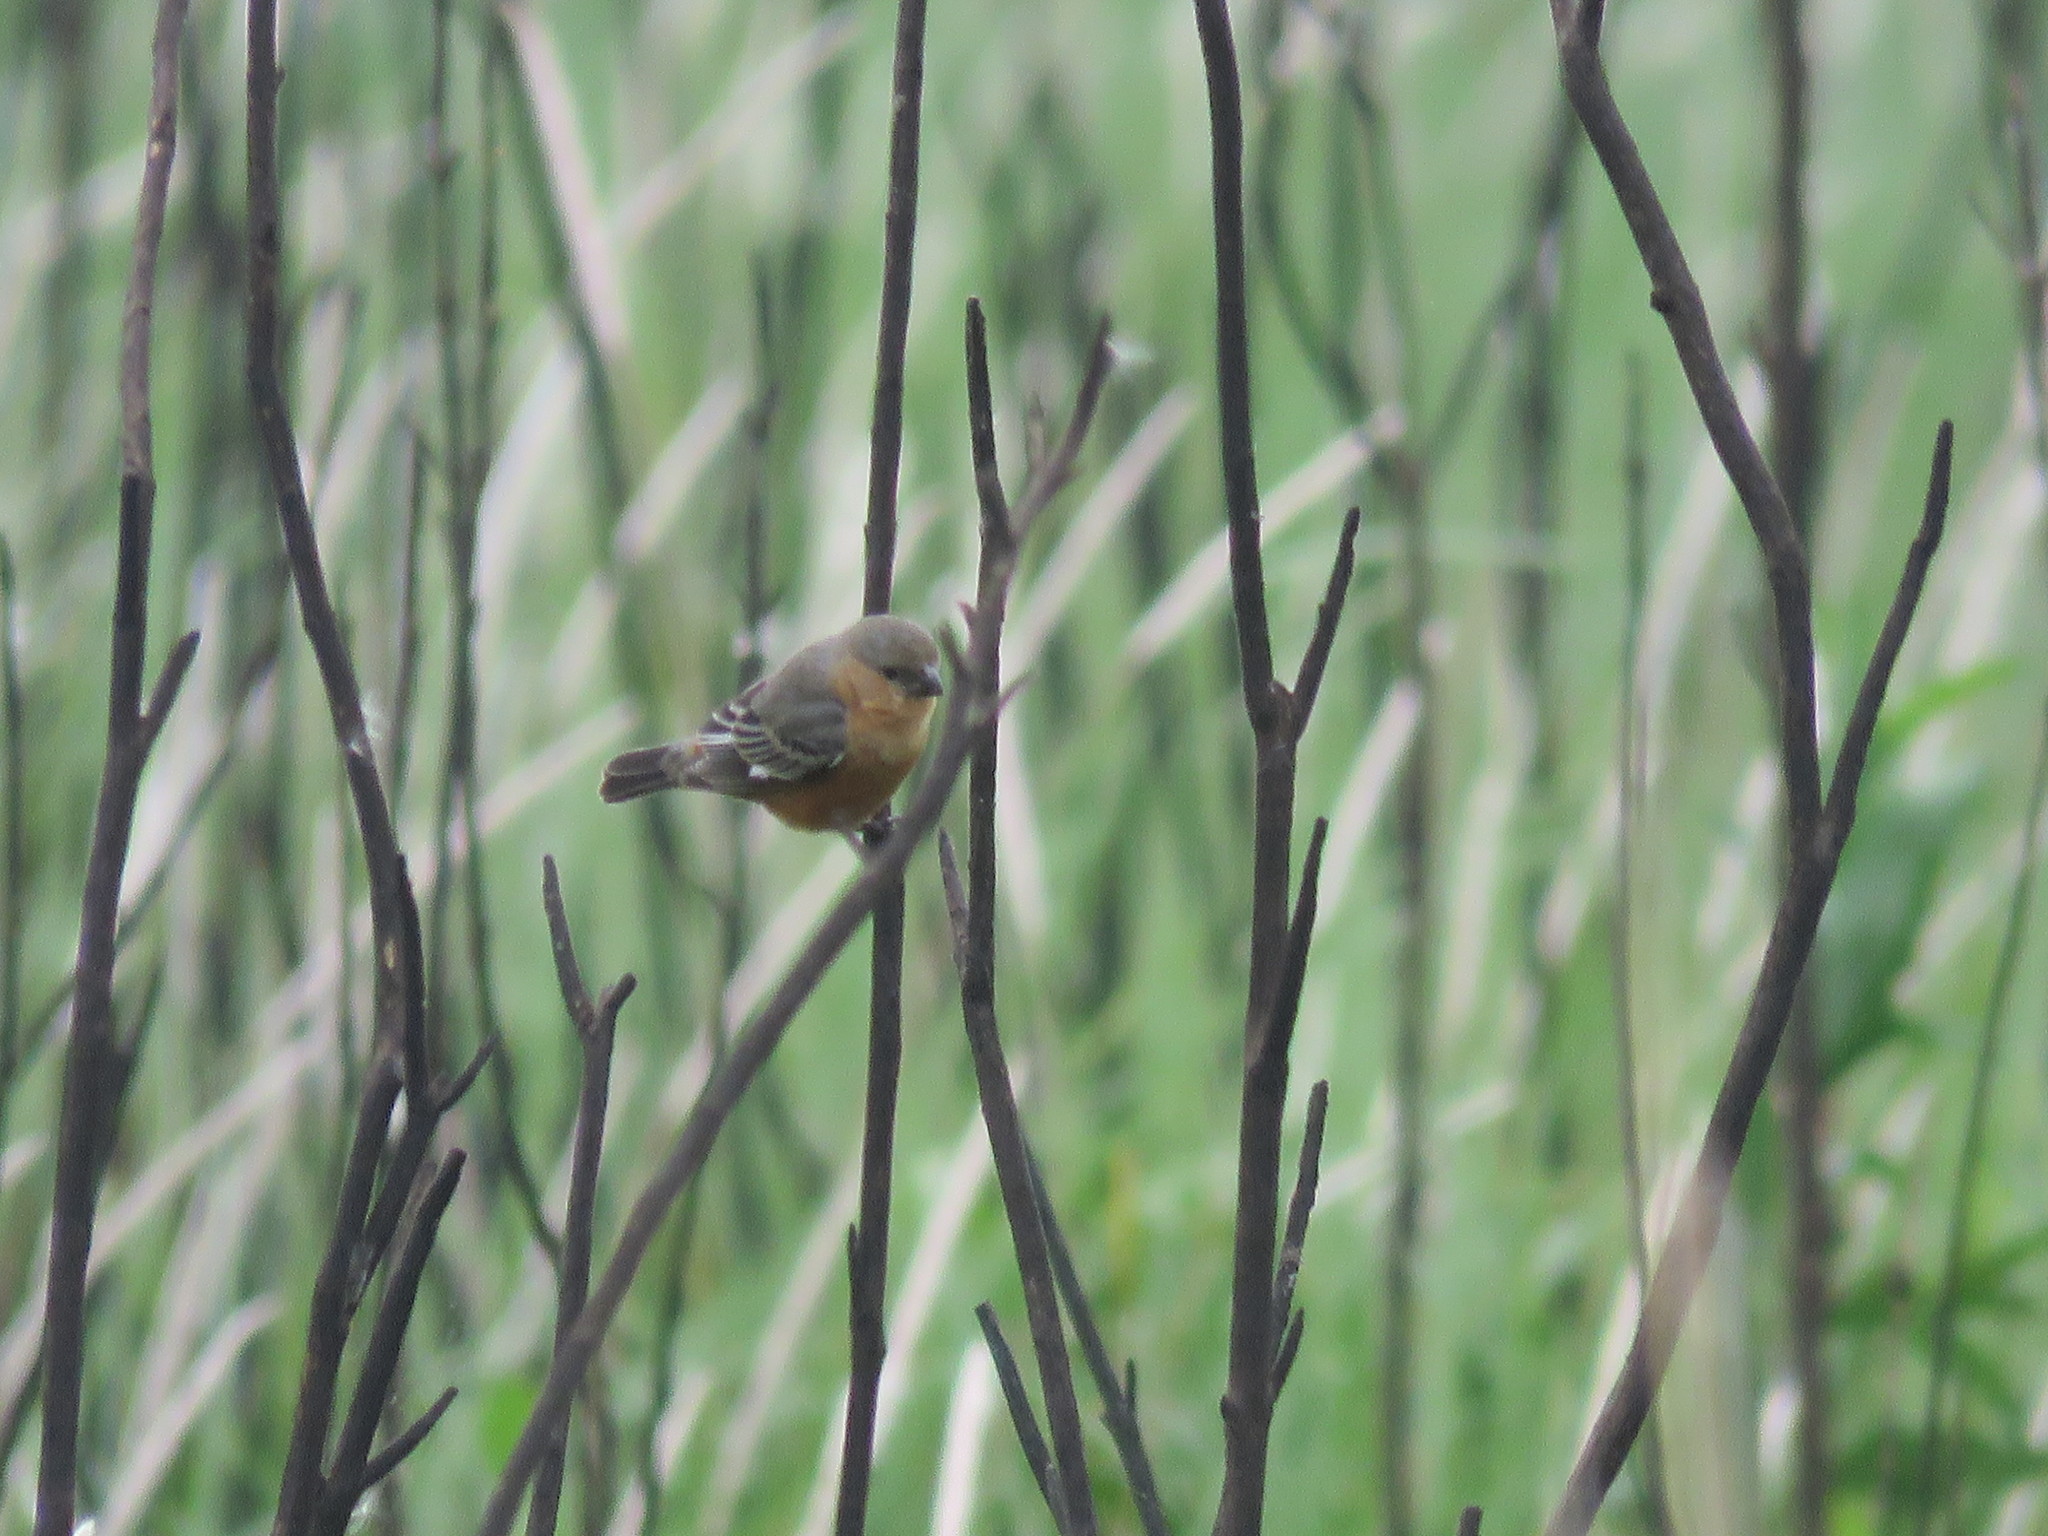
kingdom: Animalia
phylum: Chordata
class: Aves
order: Passeriformes
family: Thraupidae
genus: Sporophila
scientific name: Sporophila hypoxantha
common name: Tawny-bellied seedeater
